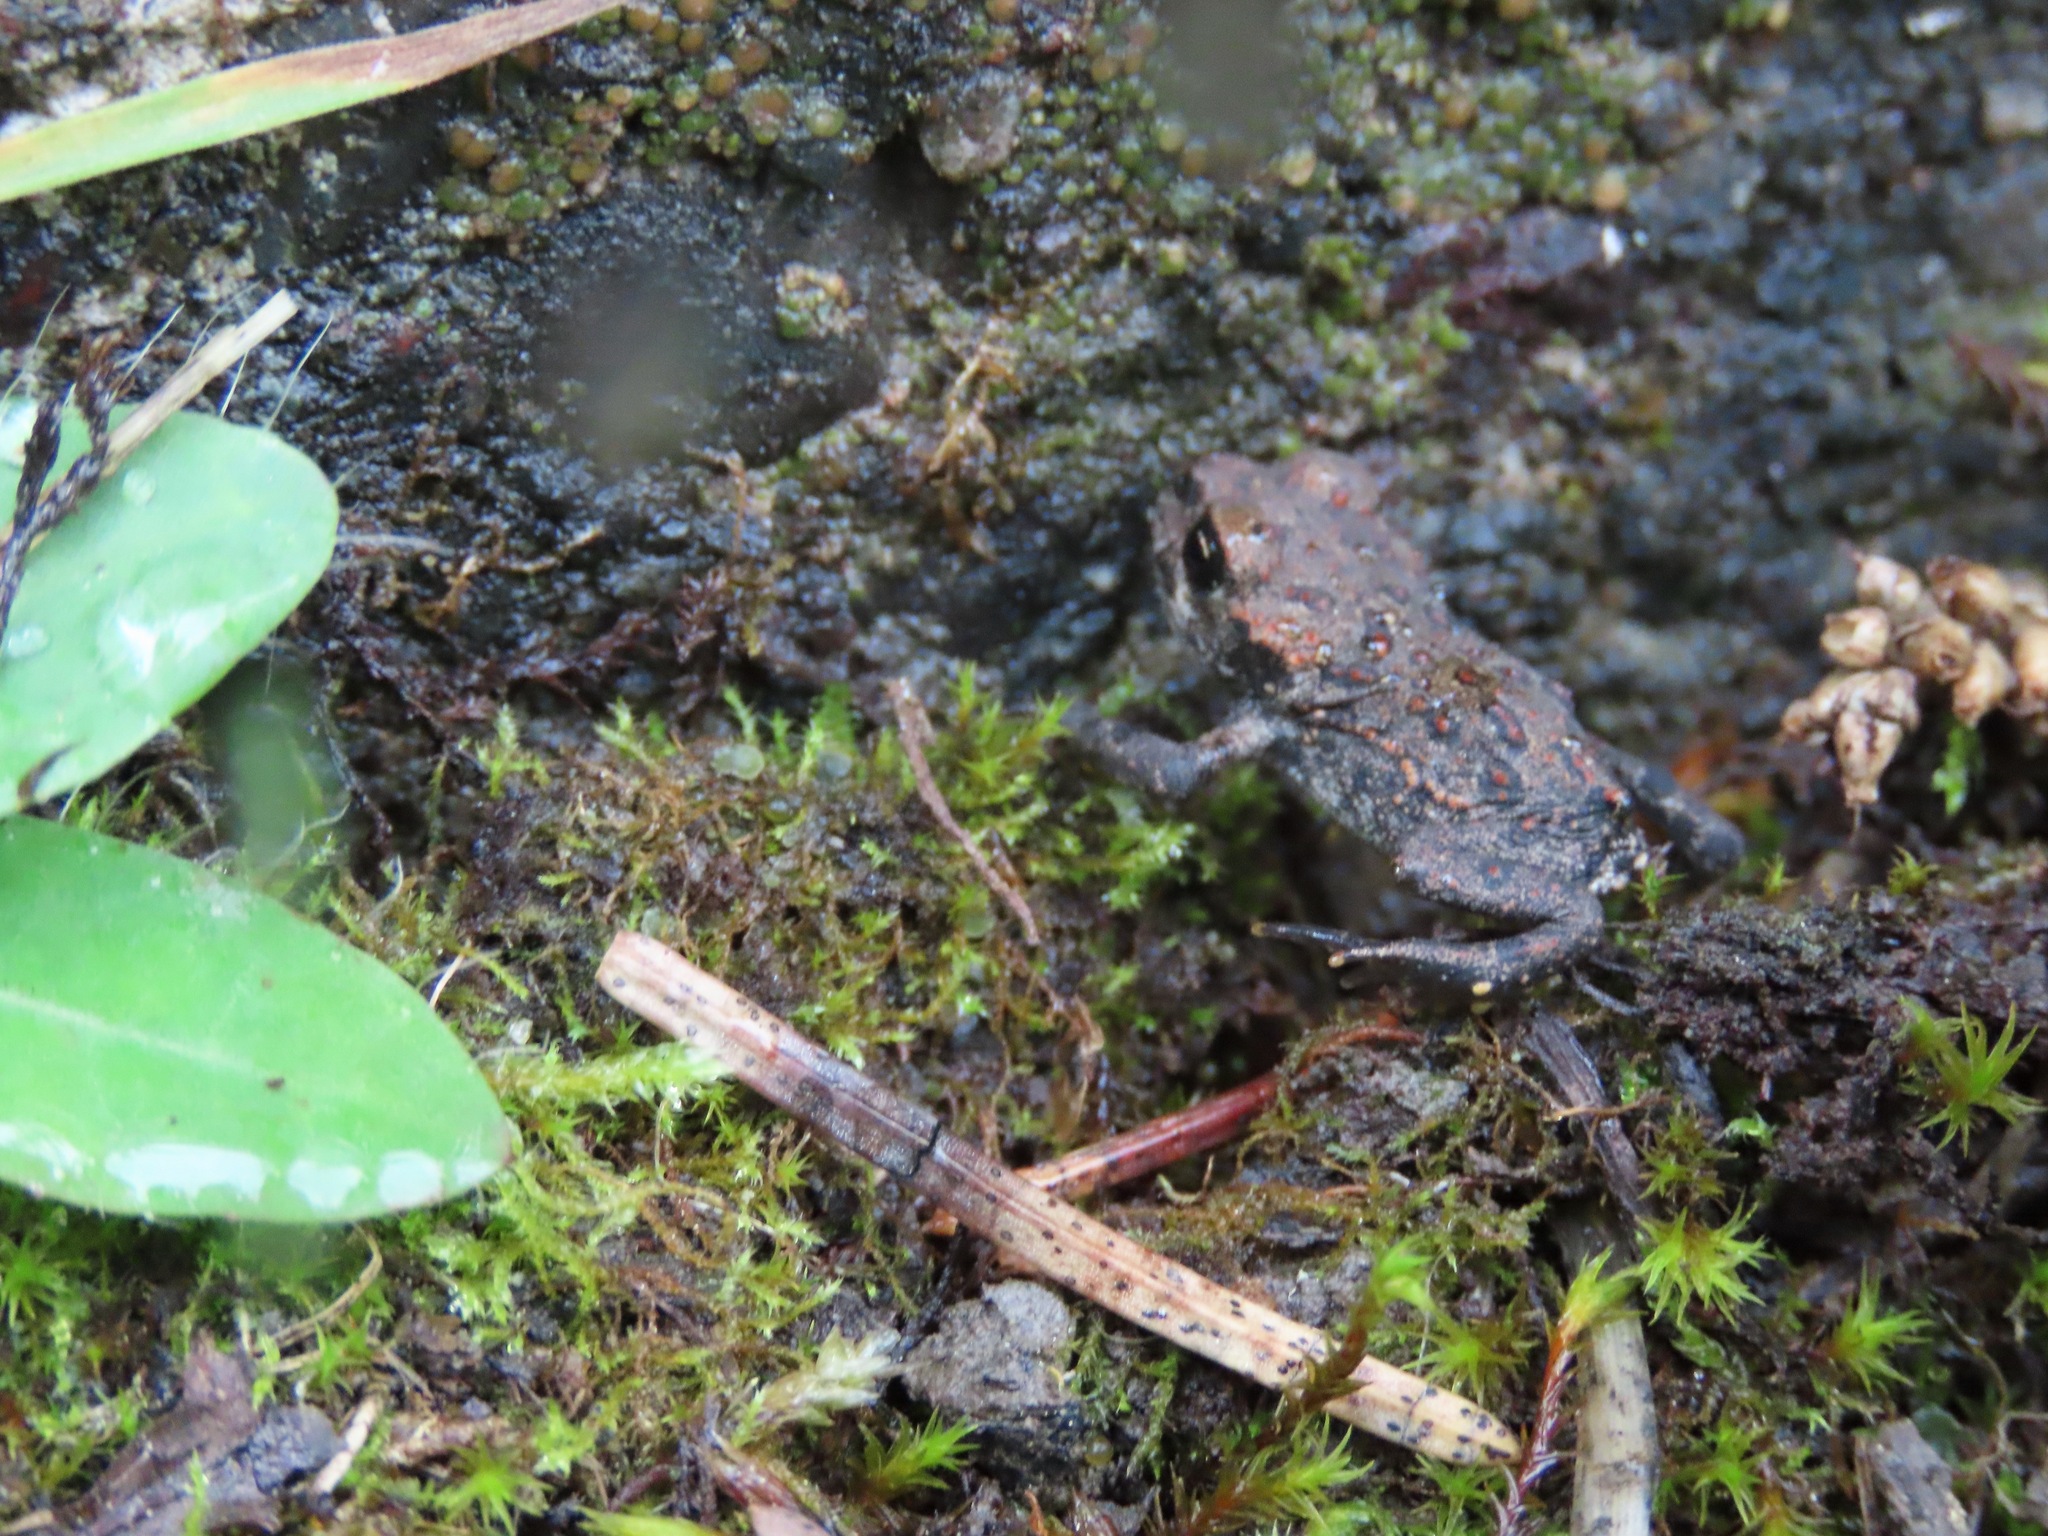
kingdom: Animalia
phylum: Chordata
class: Amphibia
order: Anura
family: Bufonidae
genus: Anaxyrus
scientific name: Anaxyrus boreas
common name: Western toad
